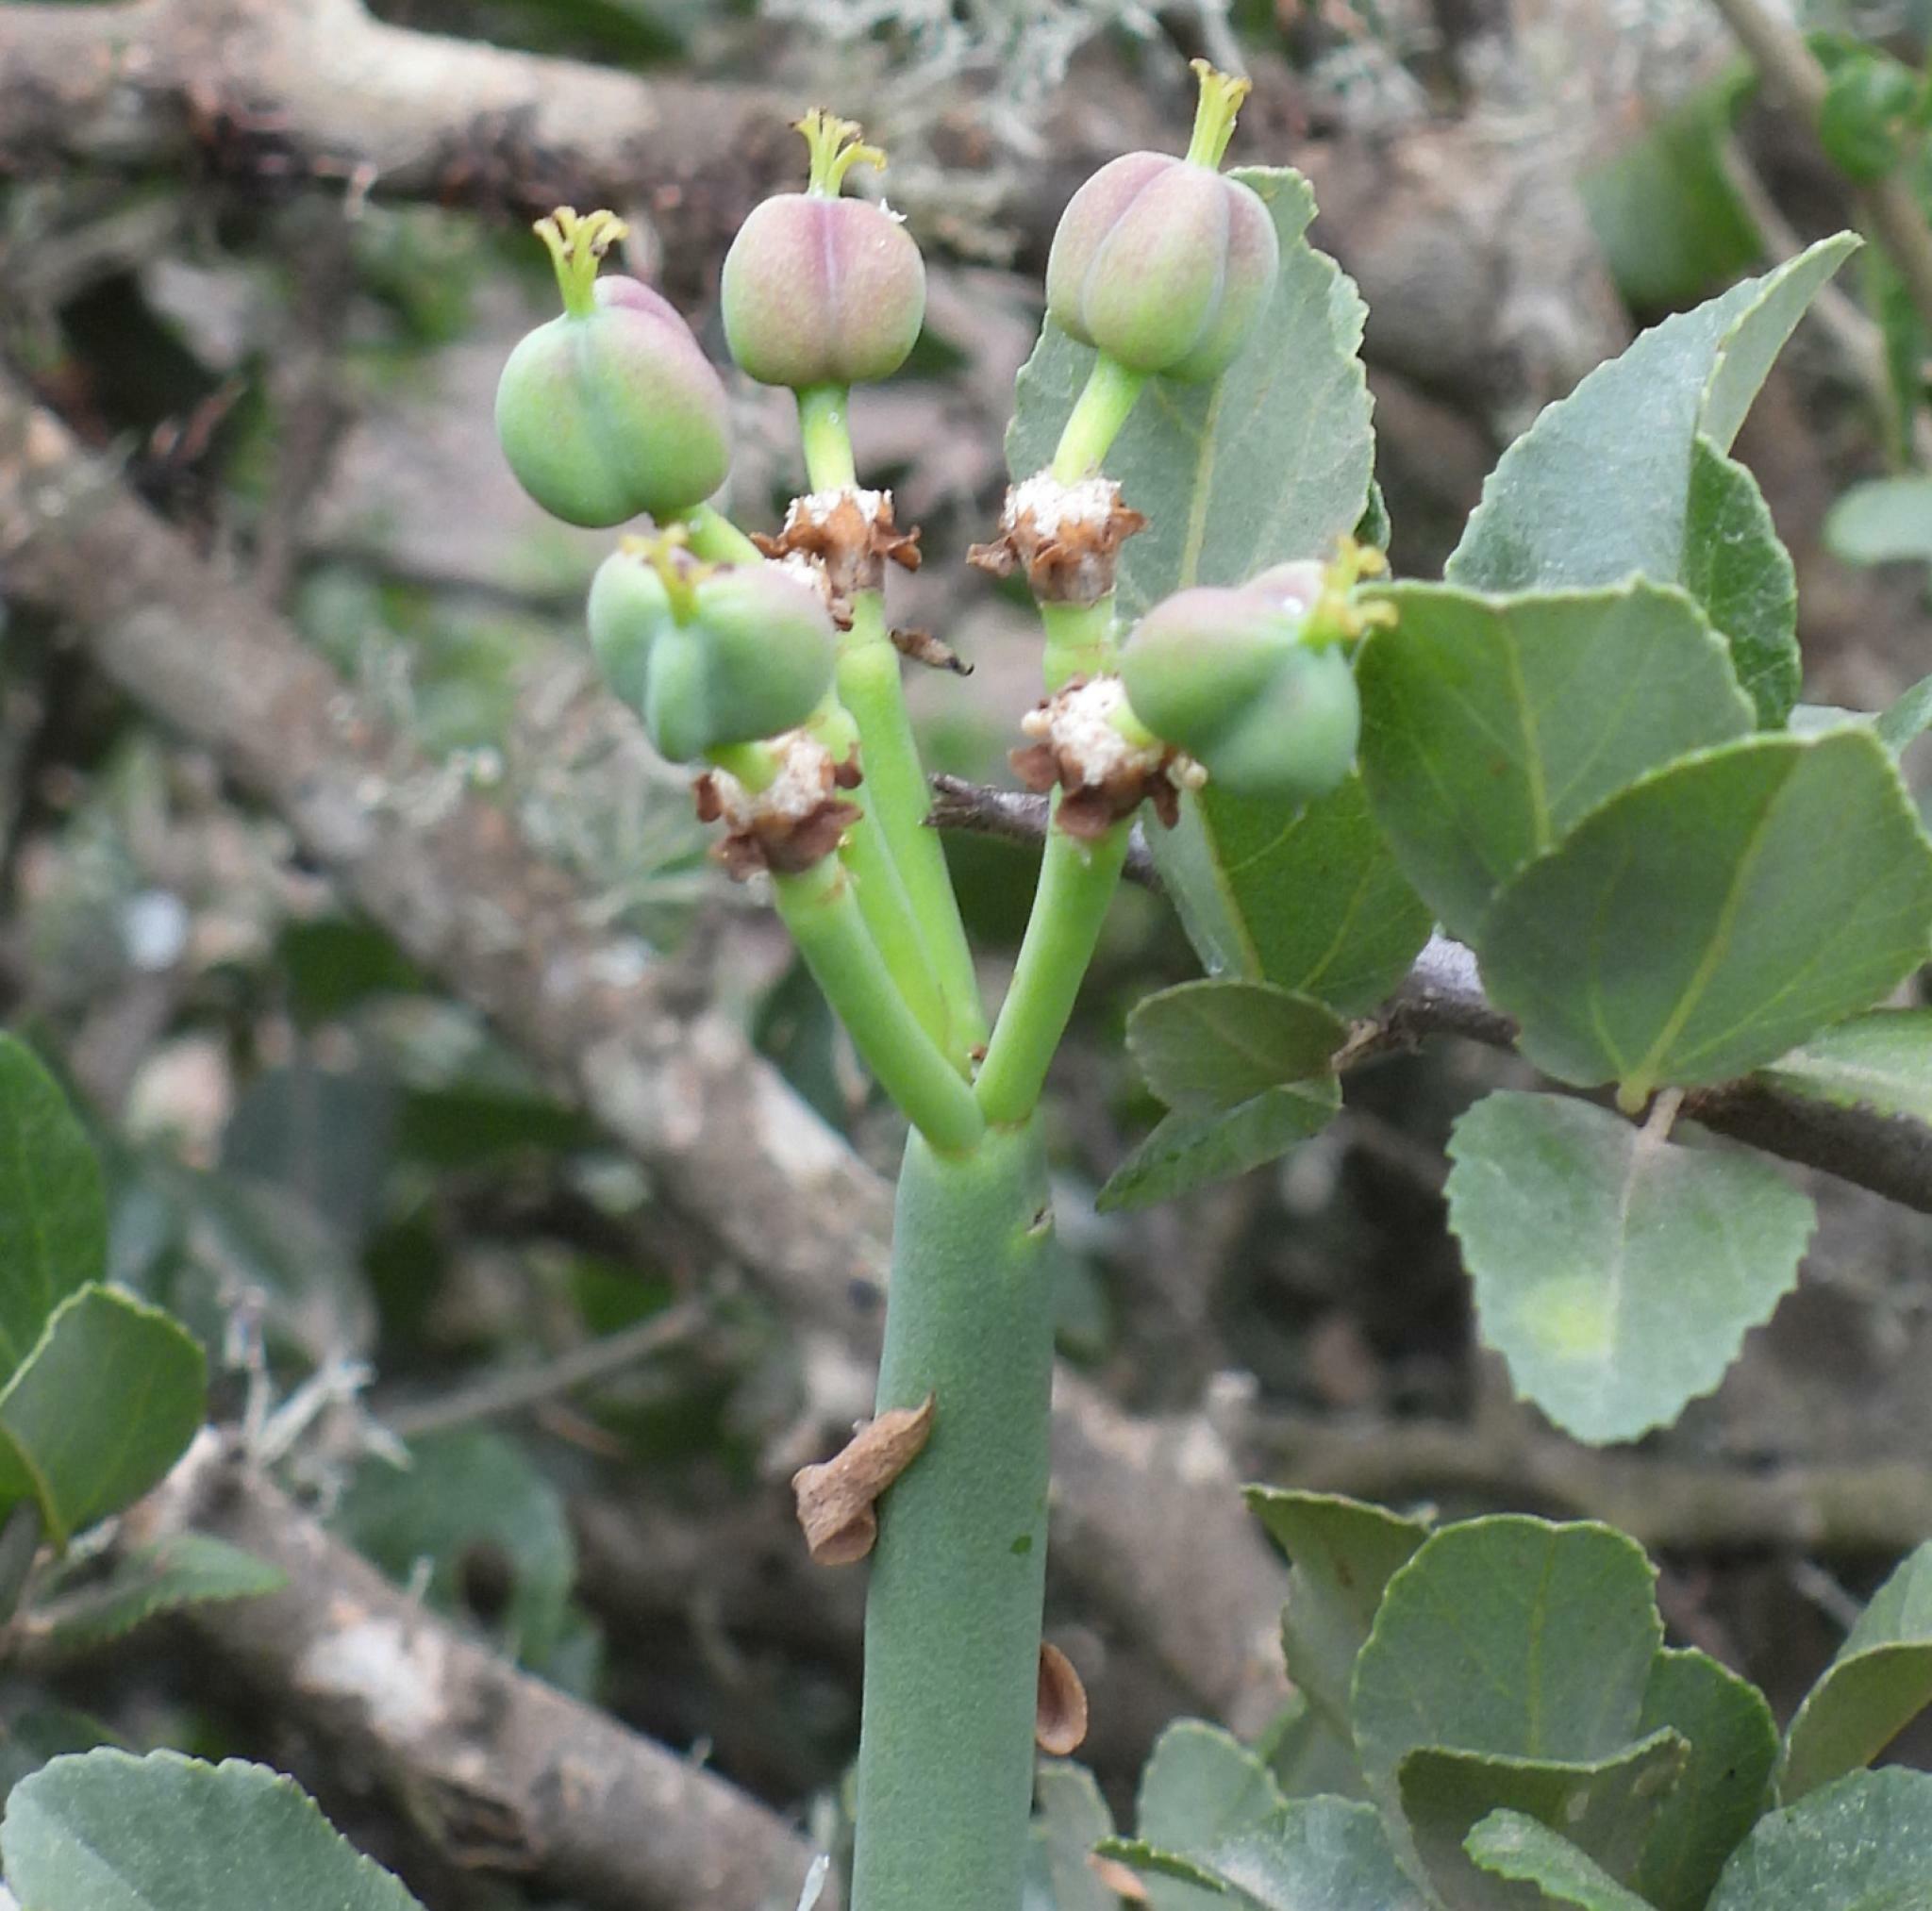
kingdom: Plantae
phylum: Tracheophyta
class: Magnoliopsida
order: Malpighiales
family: Euphorbiaceae
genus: Euphorbia
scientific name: Euphorbia mauritanica
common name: Jackal's-food
